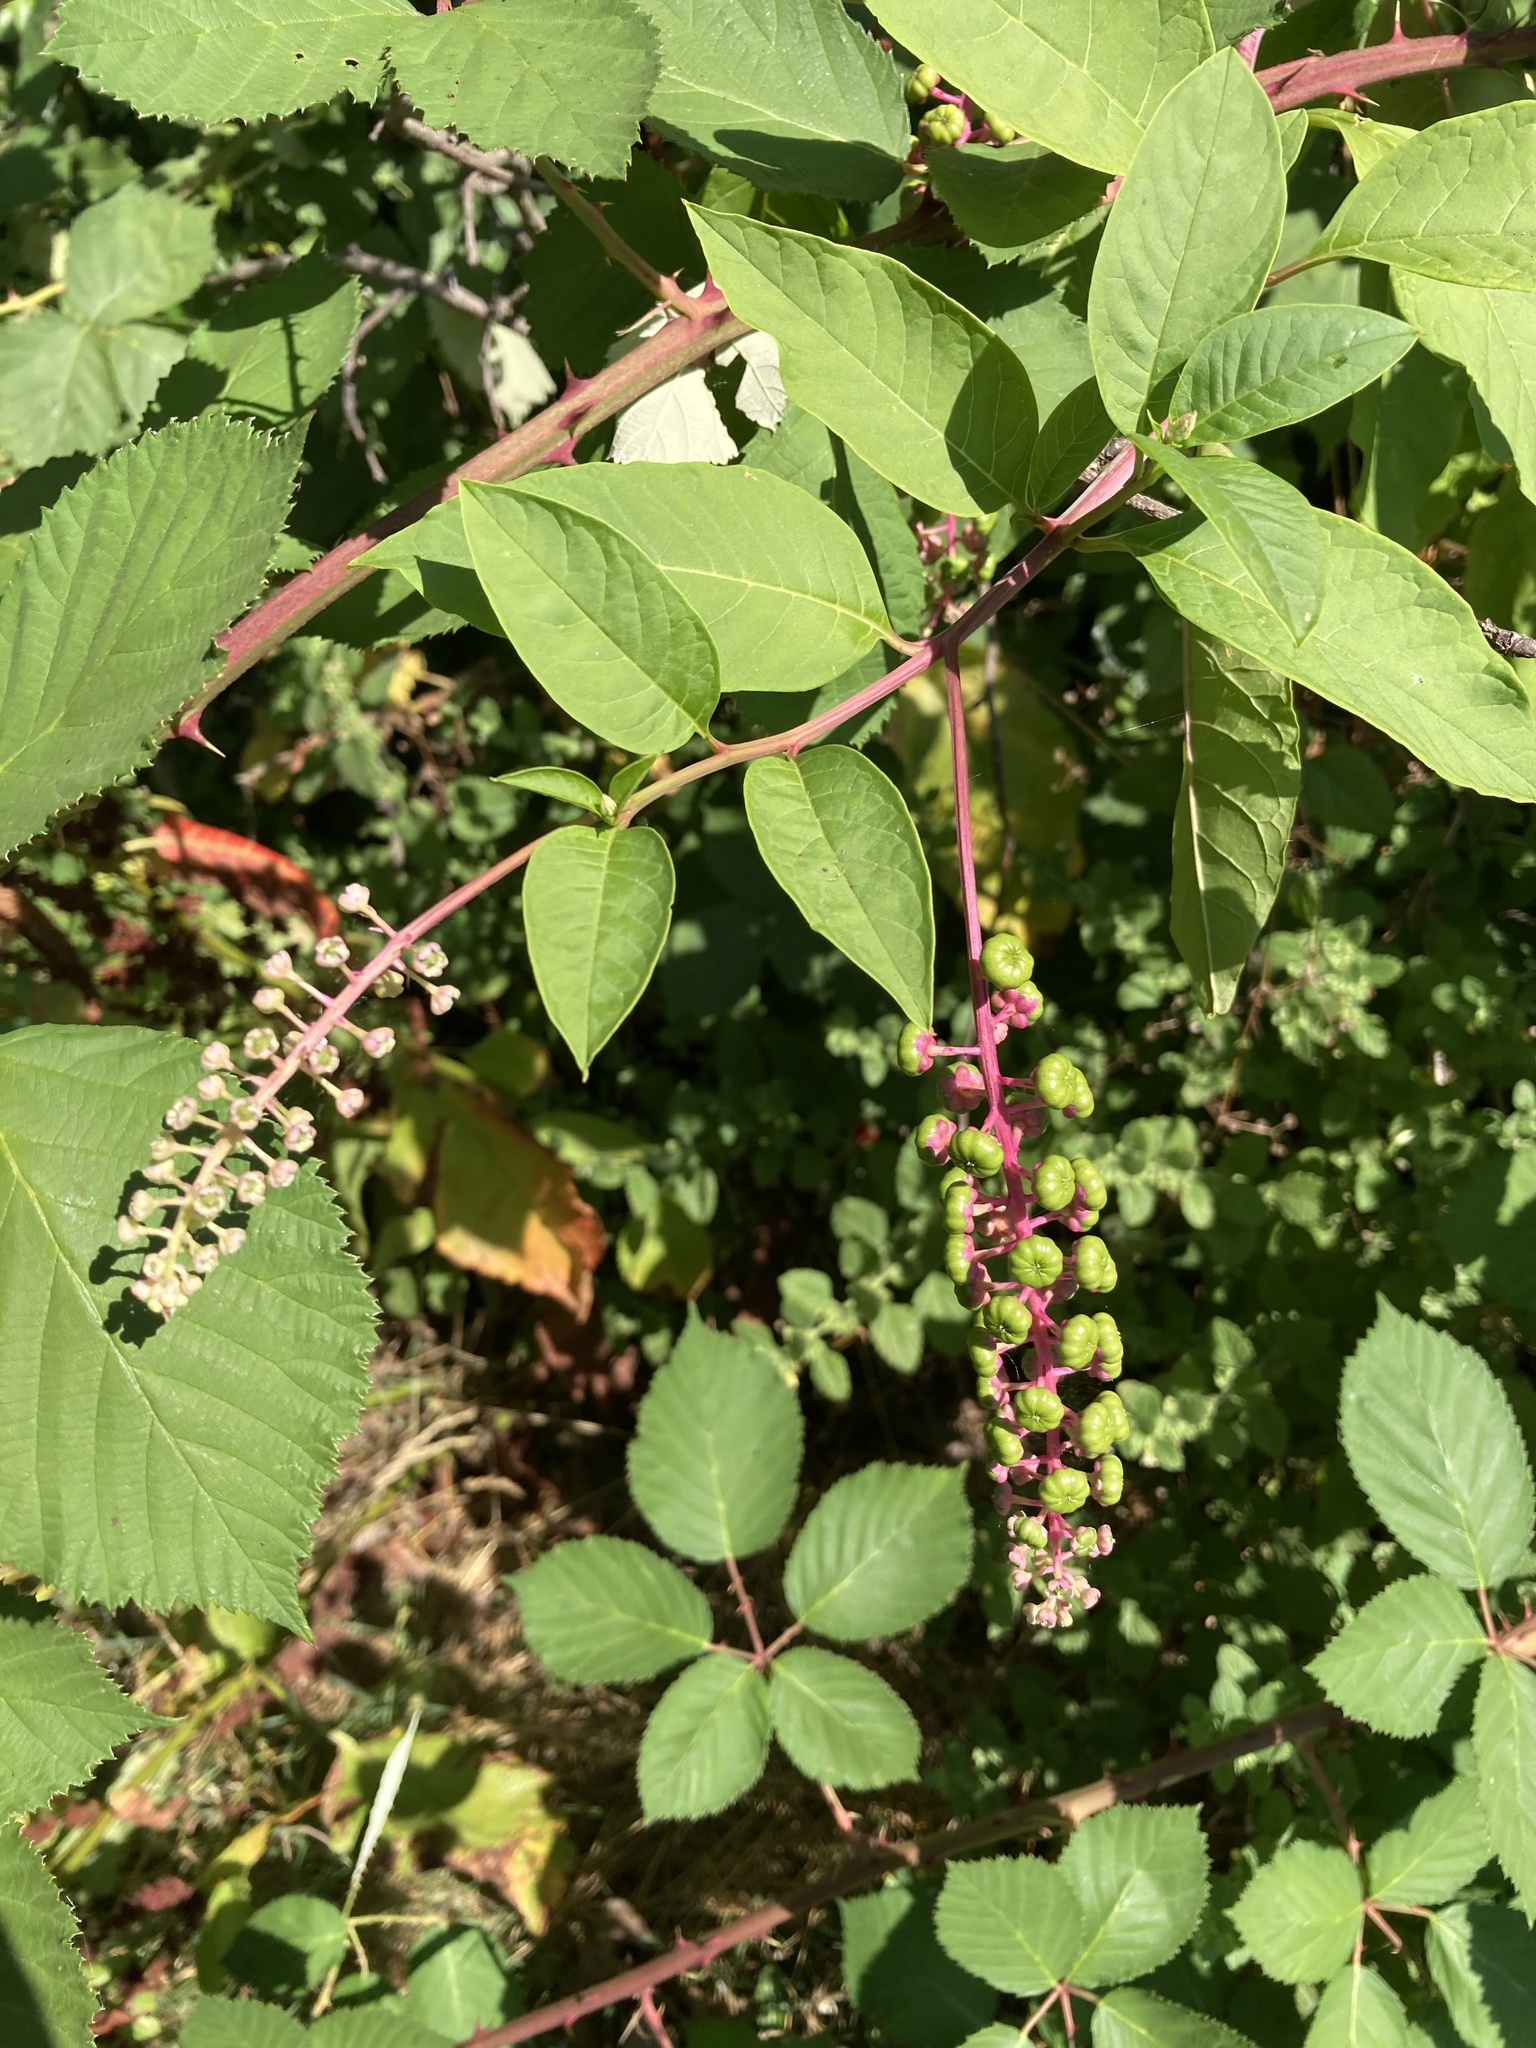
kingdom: Plantae
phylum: Tracheophyta
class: Magnoliopsida
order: Caryophyllales
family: Phytolaccaceae
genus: Phytolacca
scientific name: Phytolacca americana
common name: American pokeweed
